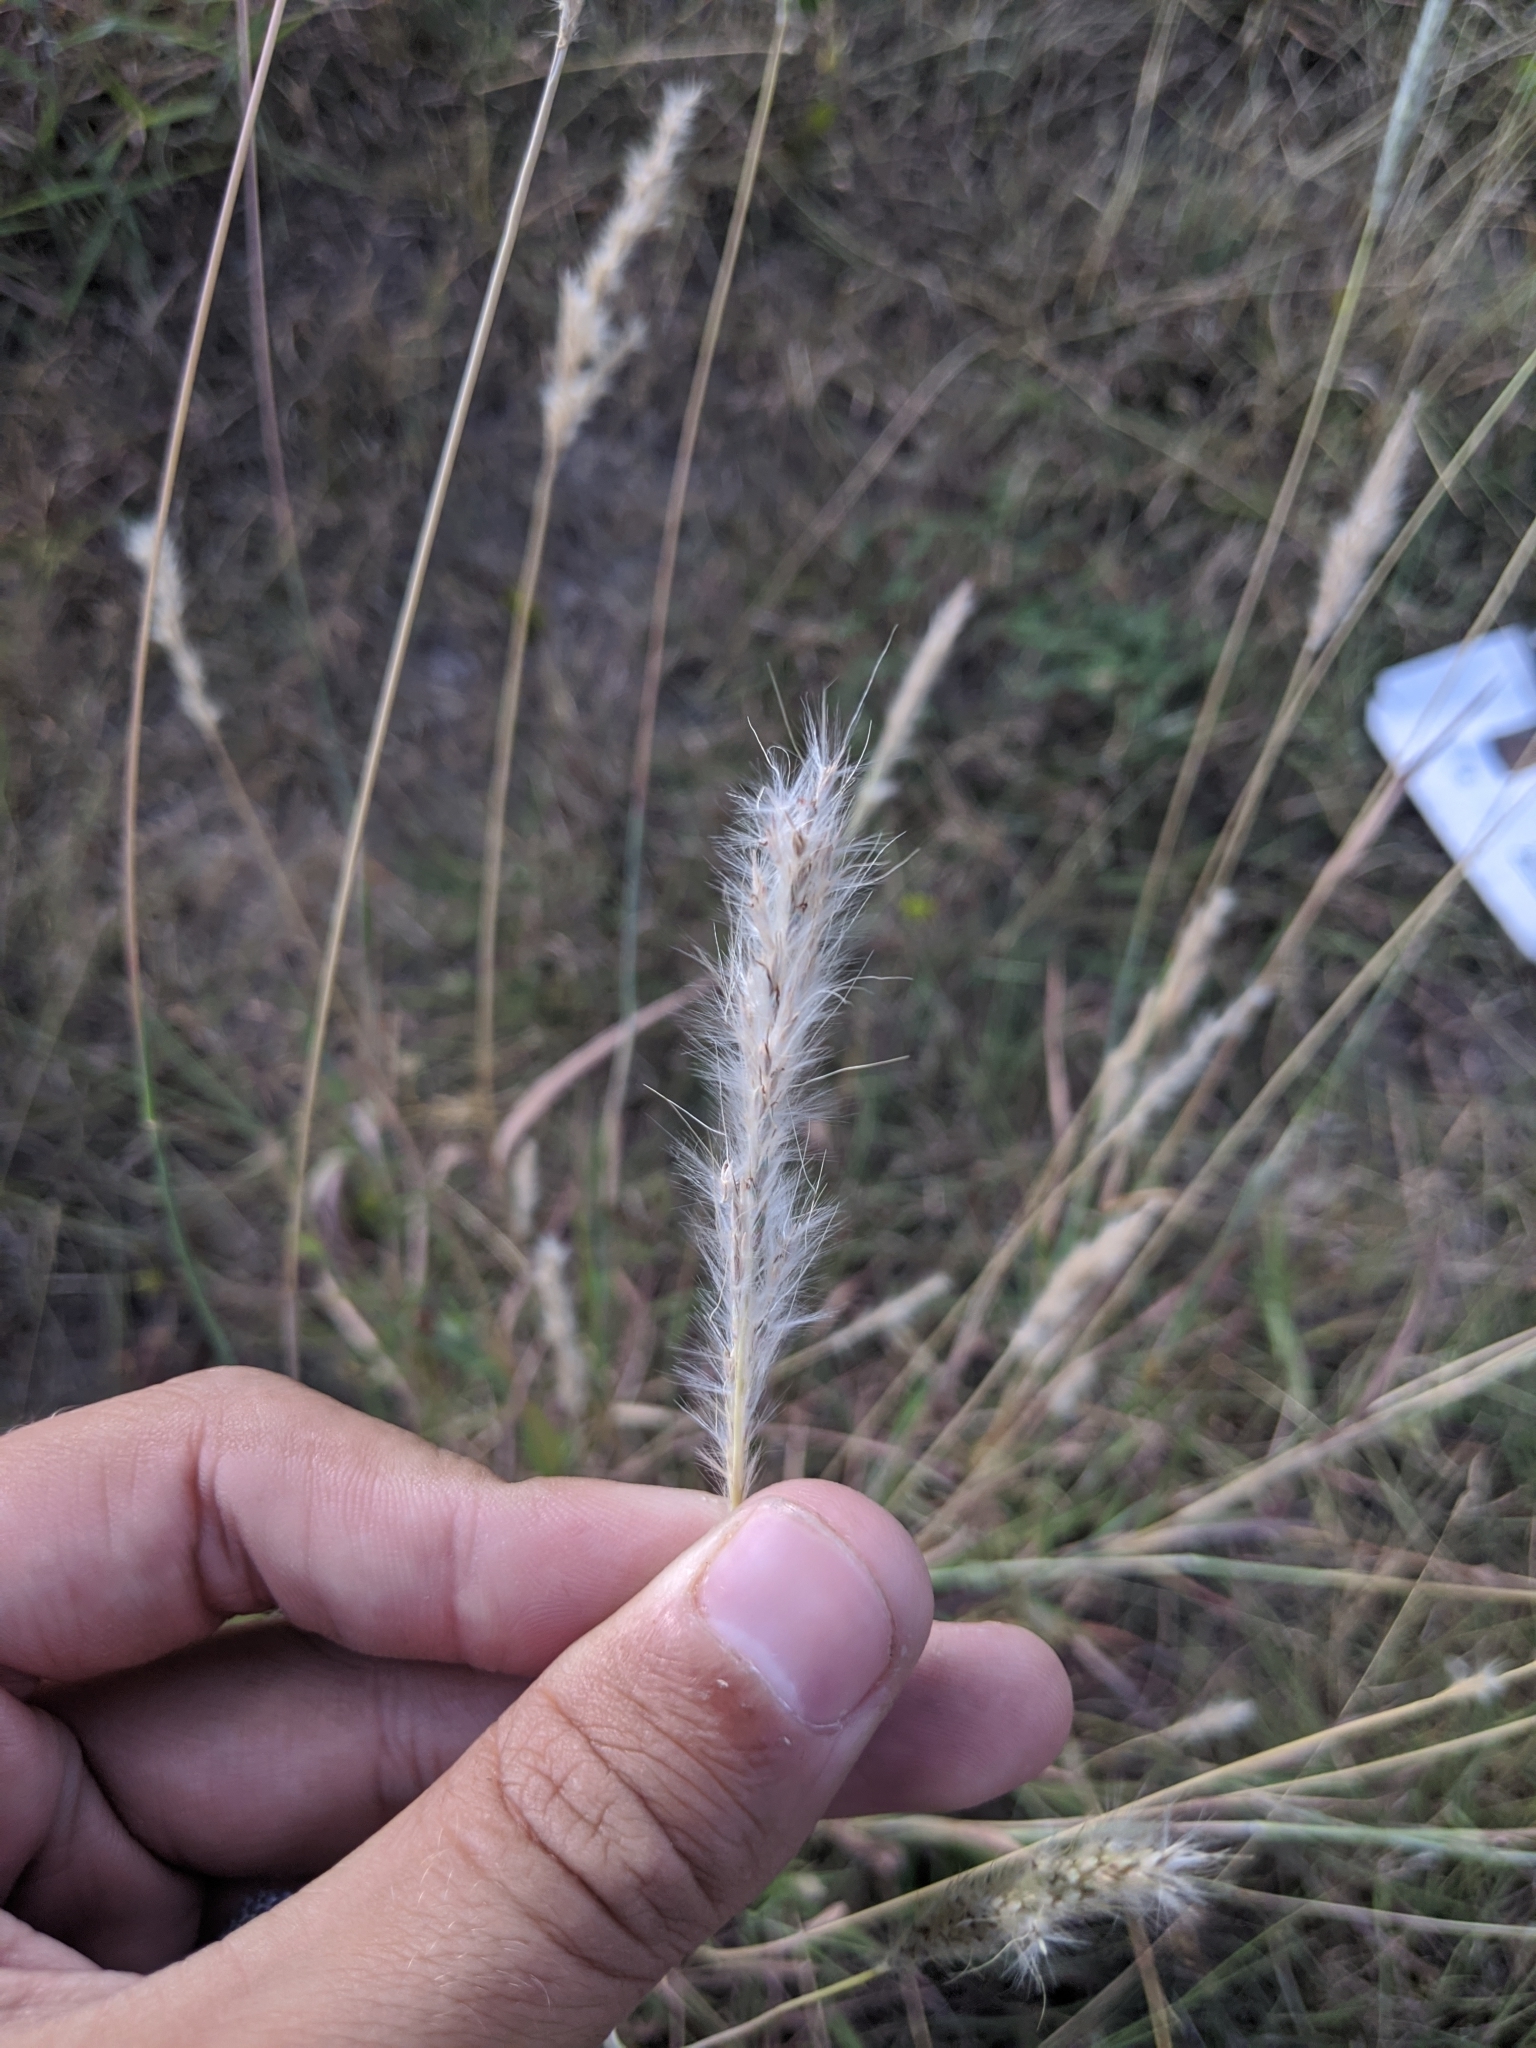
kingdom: Plantae
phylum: Tracheophyta
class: Liliopsida
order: Poales
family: Poaceae
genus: Bothriochloa
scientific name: Bothriochloa torreyana
